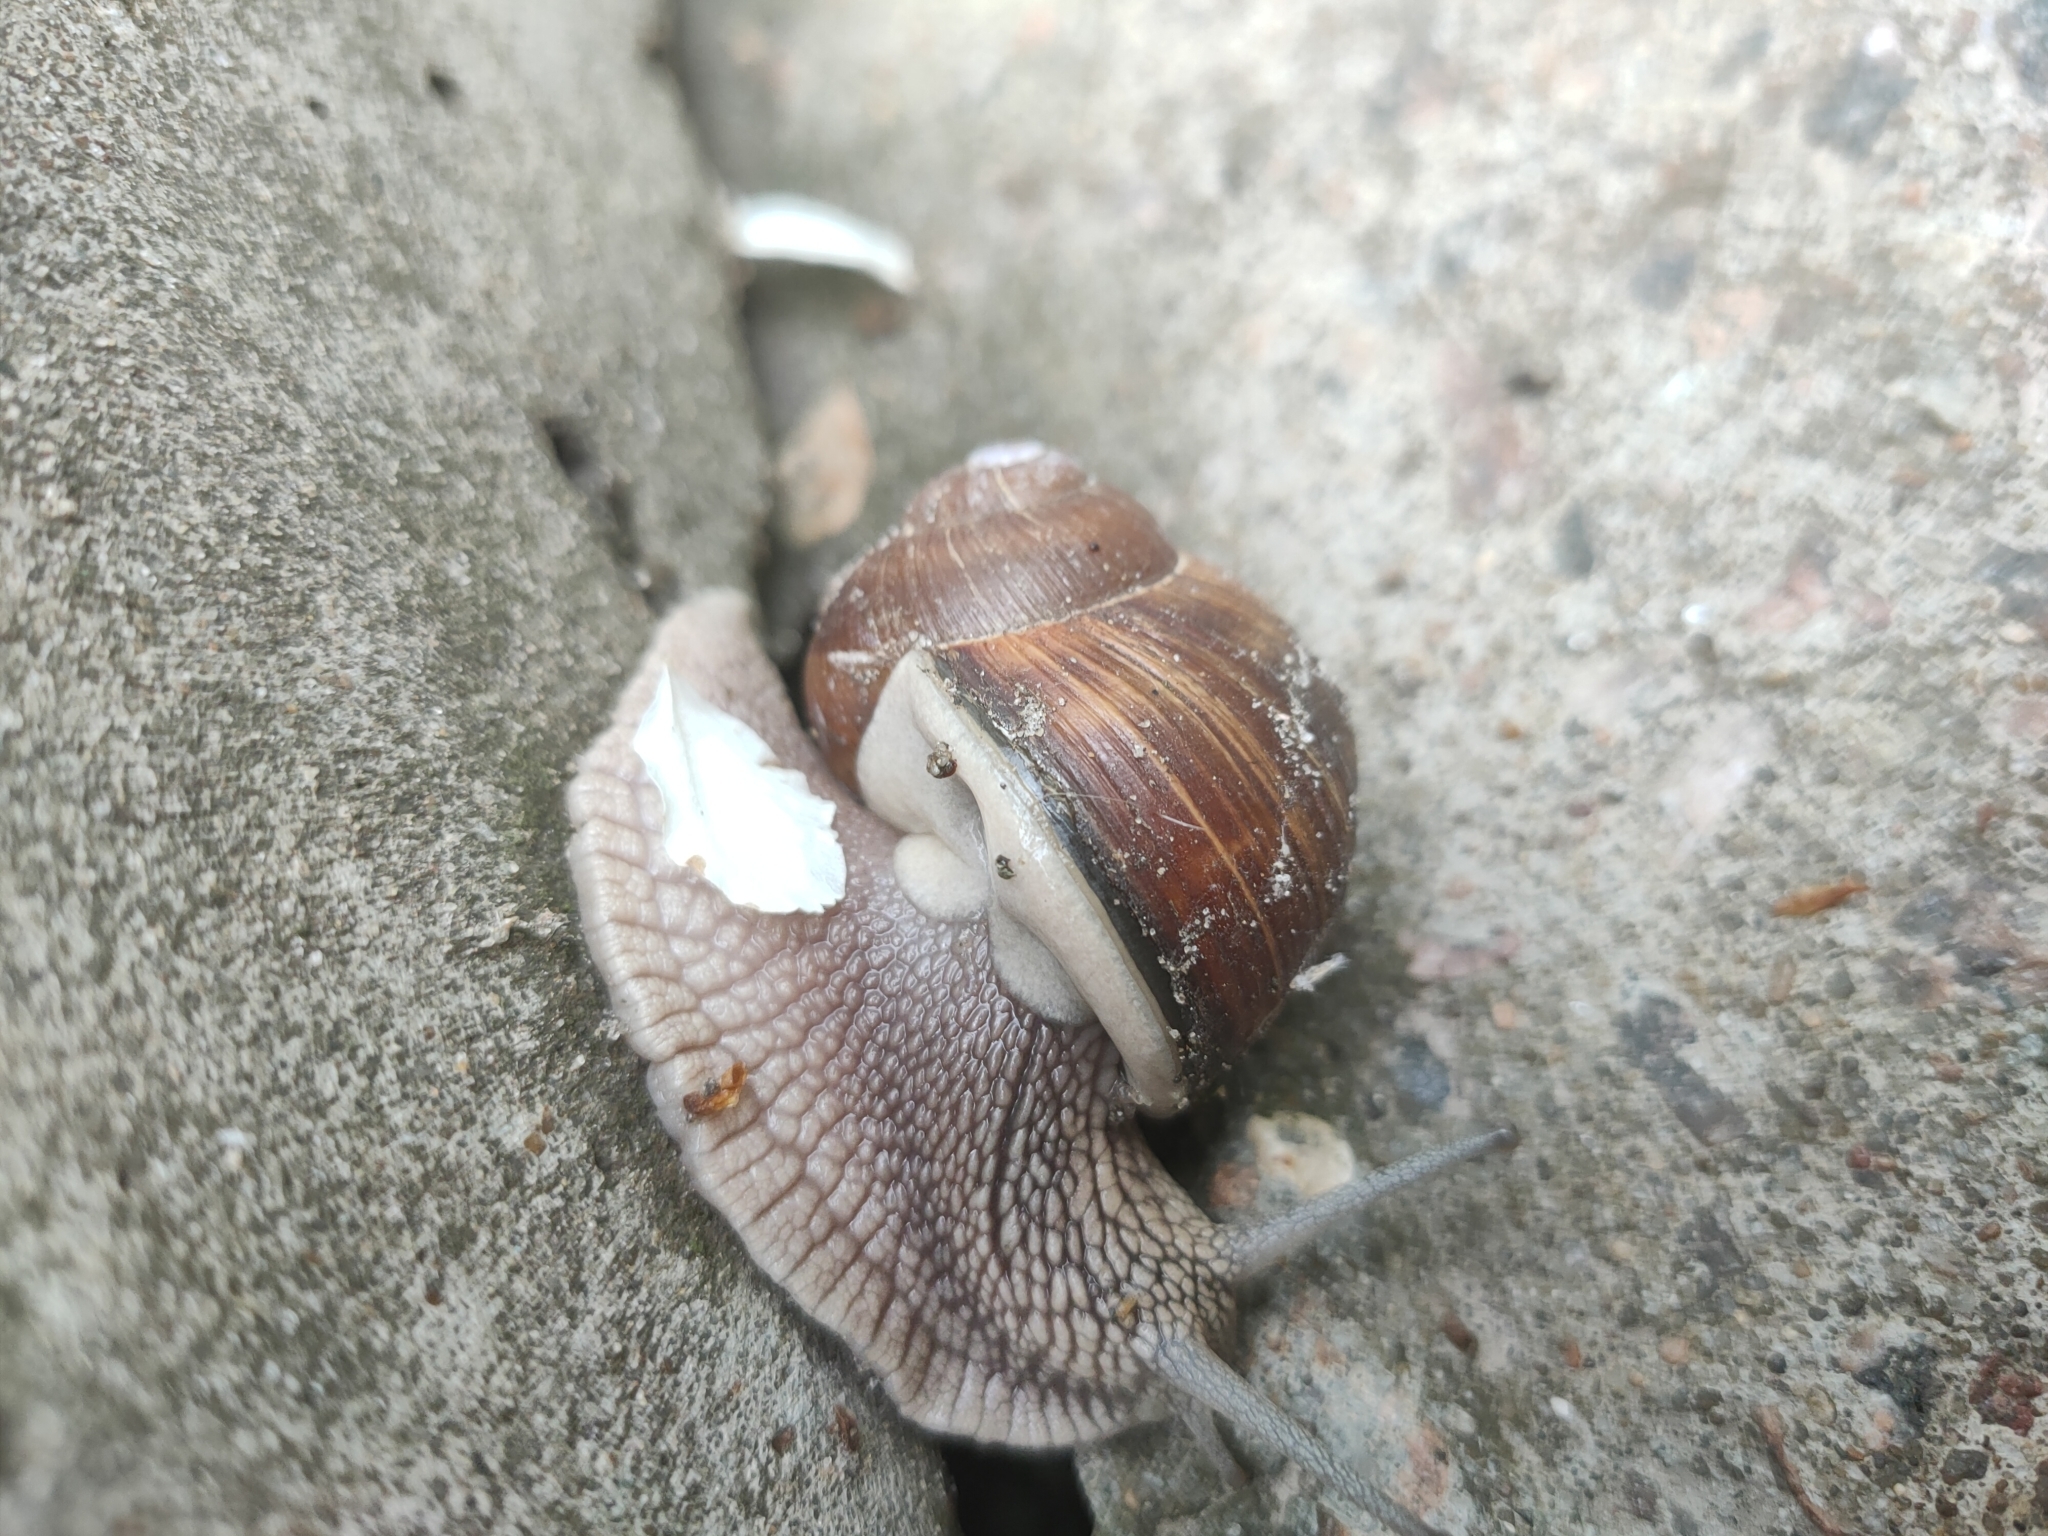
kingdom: Animalia
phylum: Mollusca
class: Gastropoda
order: Stylommatophora
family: Helicidae
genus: Helix
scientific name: Helix pomatia
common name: Roman snail
